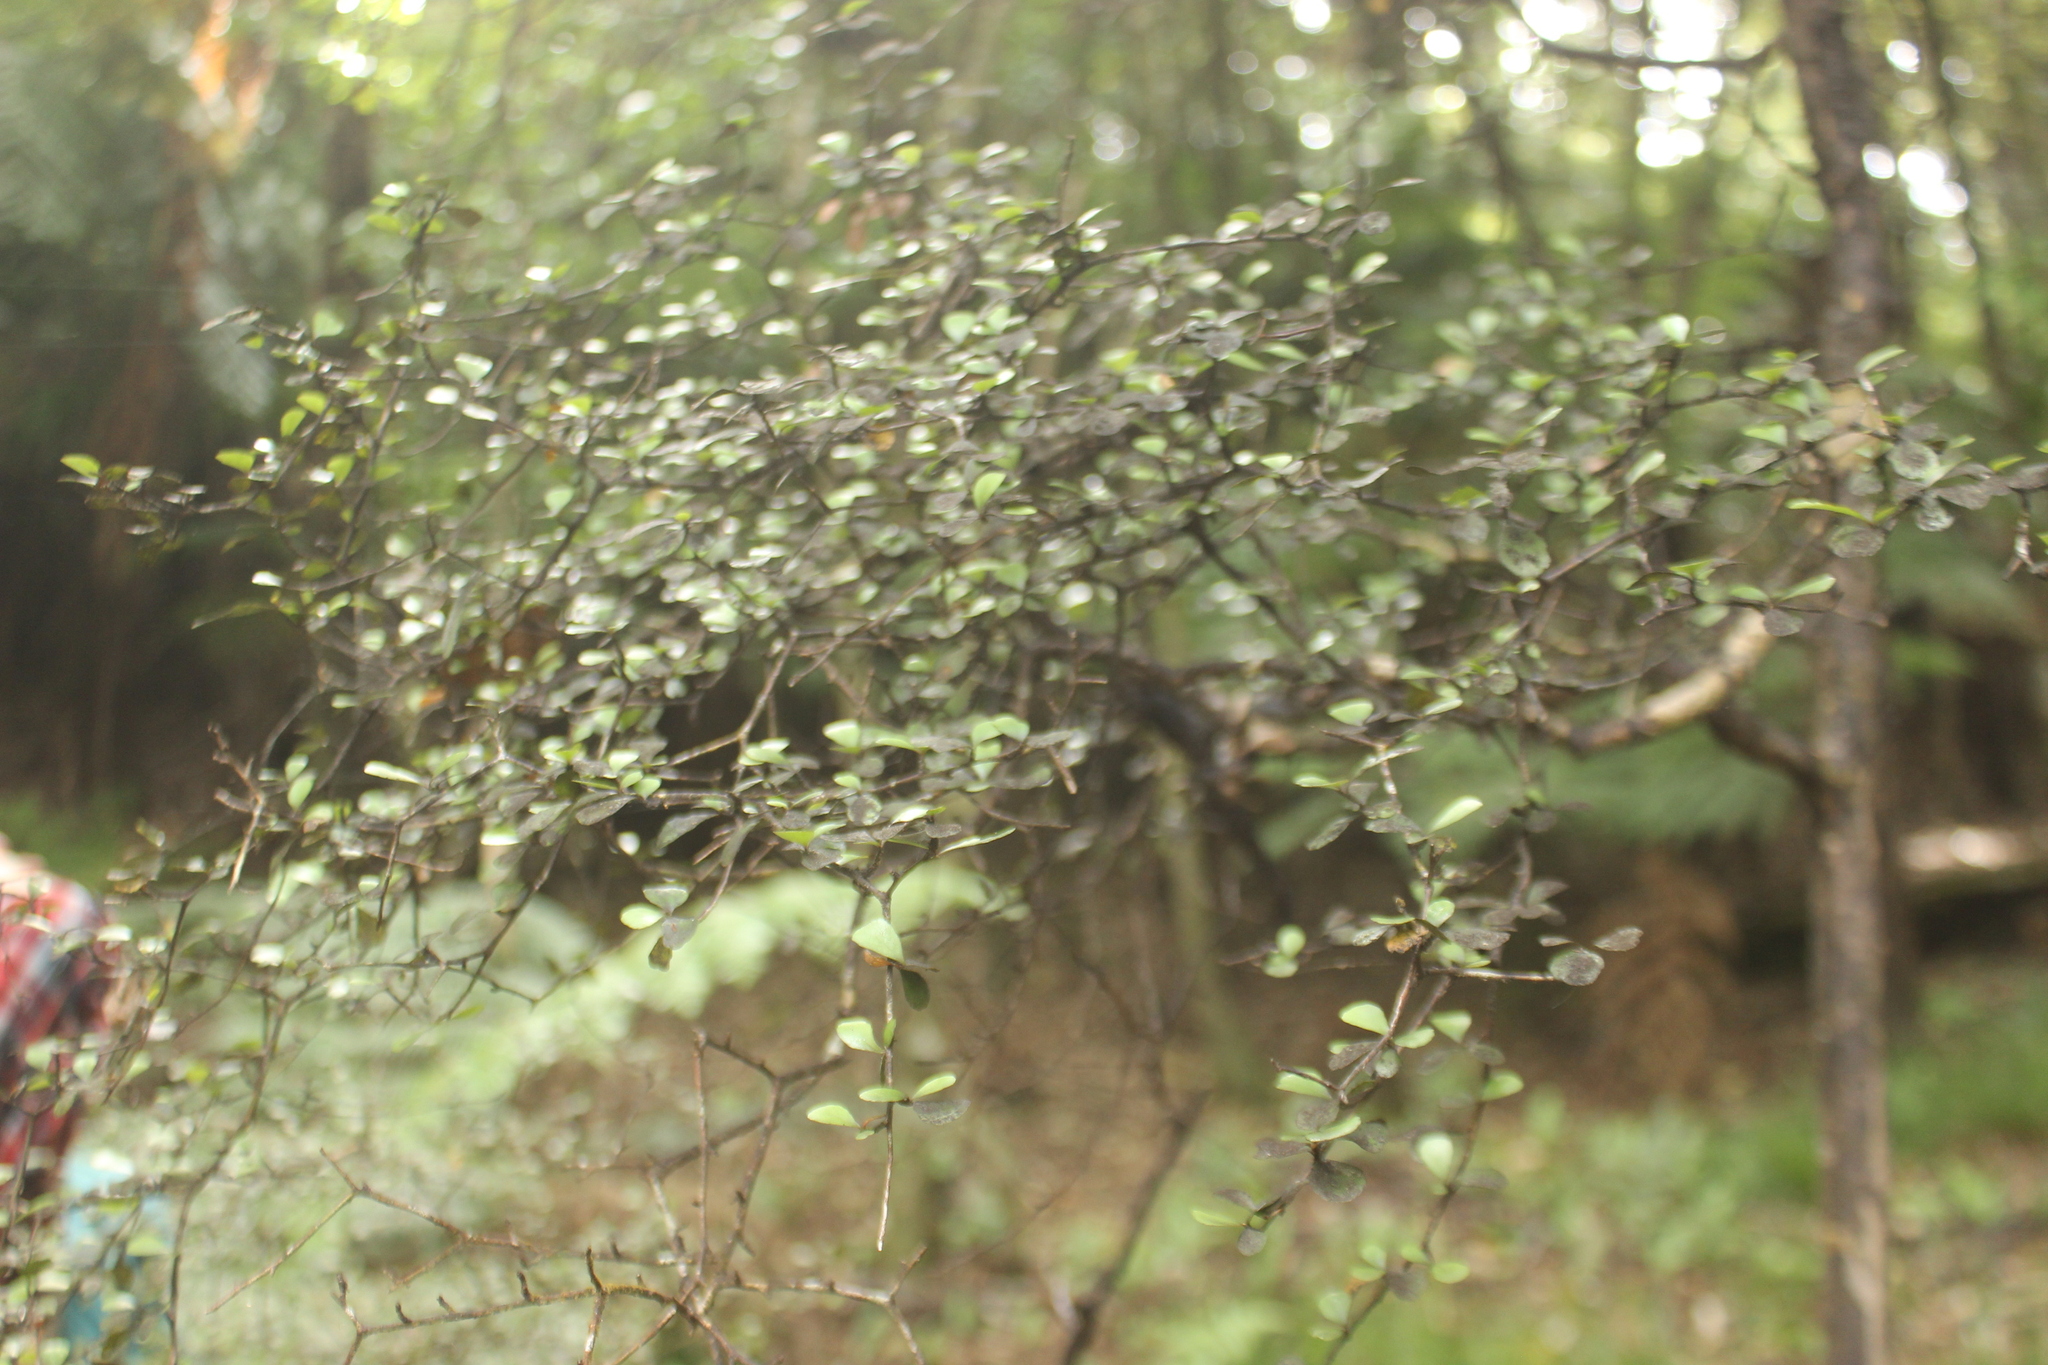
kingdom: Plantae
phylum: Tracheophyta
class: Magnoliopsida
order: Oxalidales
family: Elaeocarpaceae
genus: Elaeocarpus
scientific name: Elaeocarpus hookerianus
